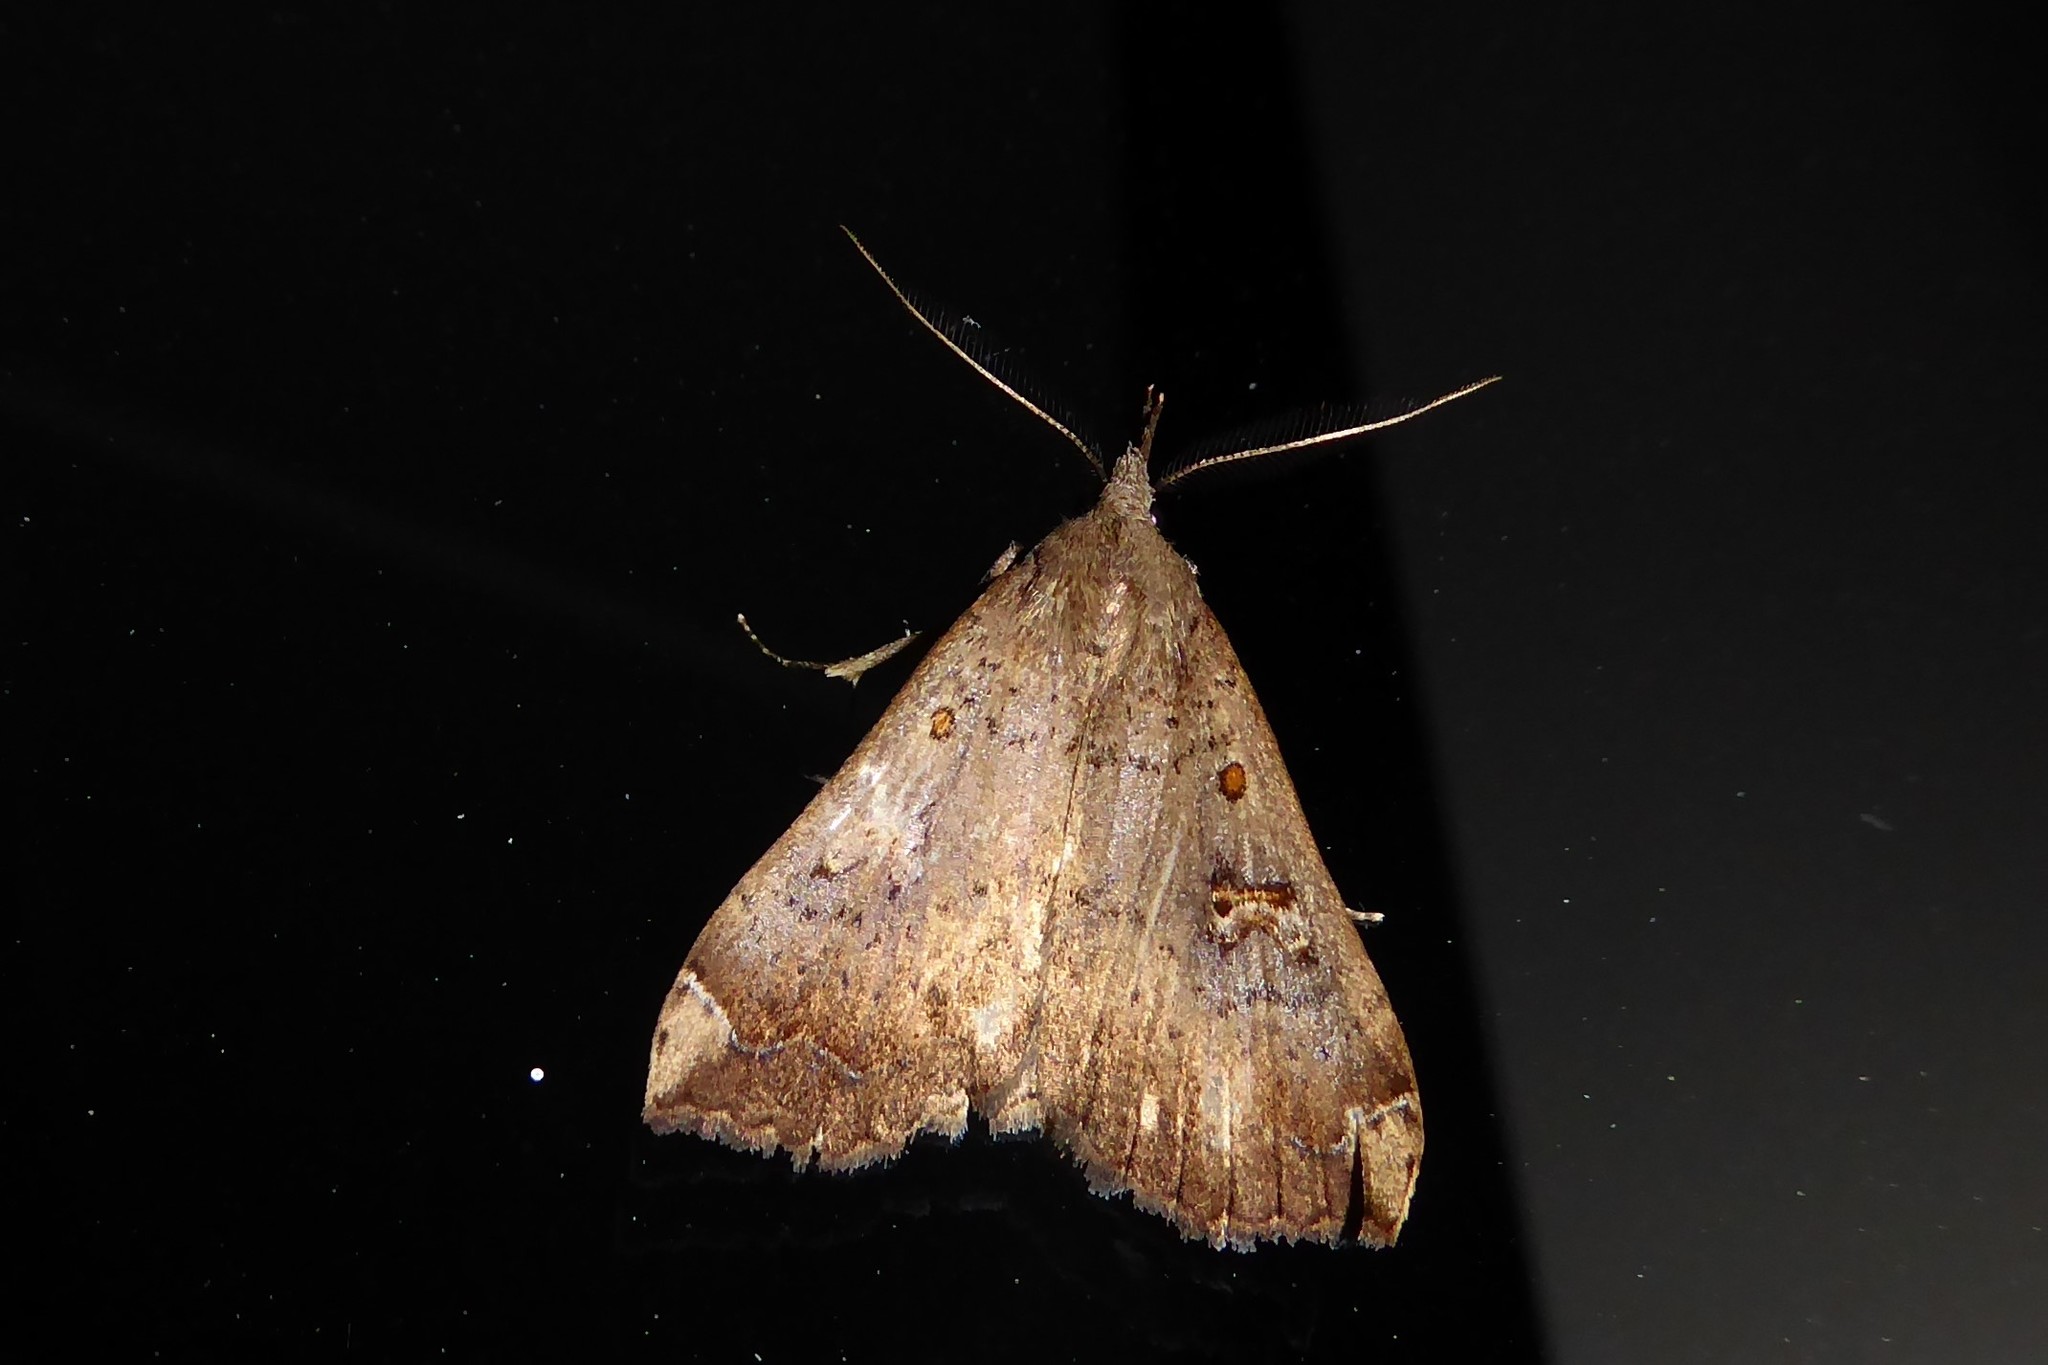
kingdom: Animalia
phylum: Arthropoda
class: Insecta
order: Lepidoptera
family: Erebidae
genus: Rhapsa
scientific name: Rhapsa scotosialis
